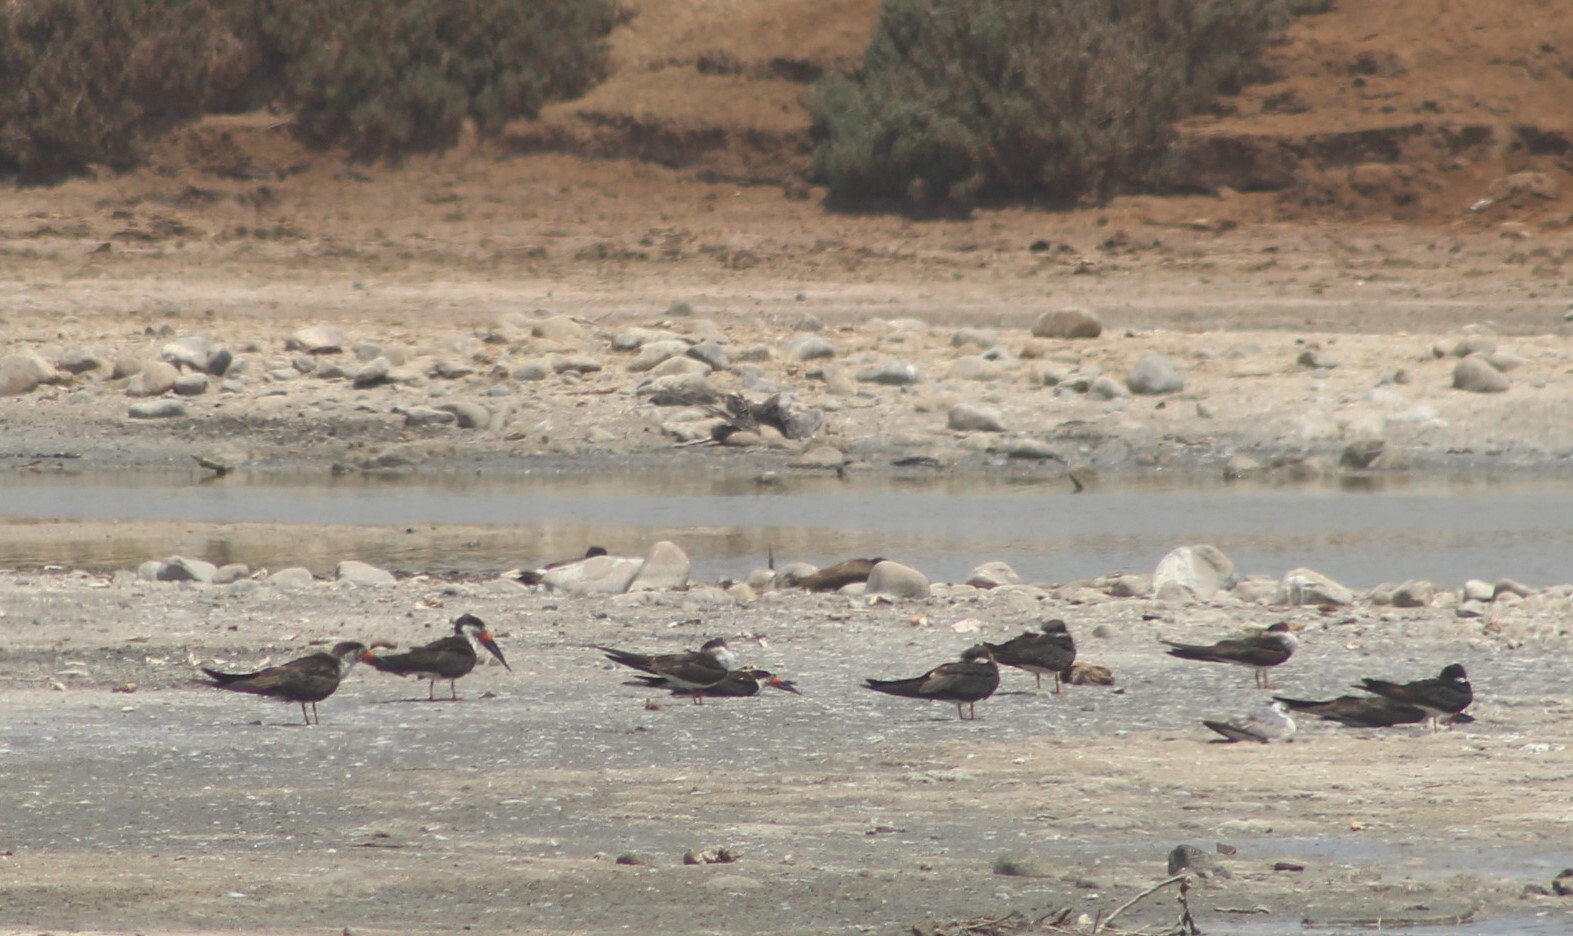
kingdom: Animalia
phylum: Chordata
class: Aves
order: Charadriiformes
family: Laridae
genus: Rynchops
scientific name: Rynchops niger
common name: Black skimmer
